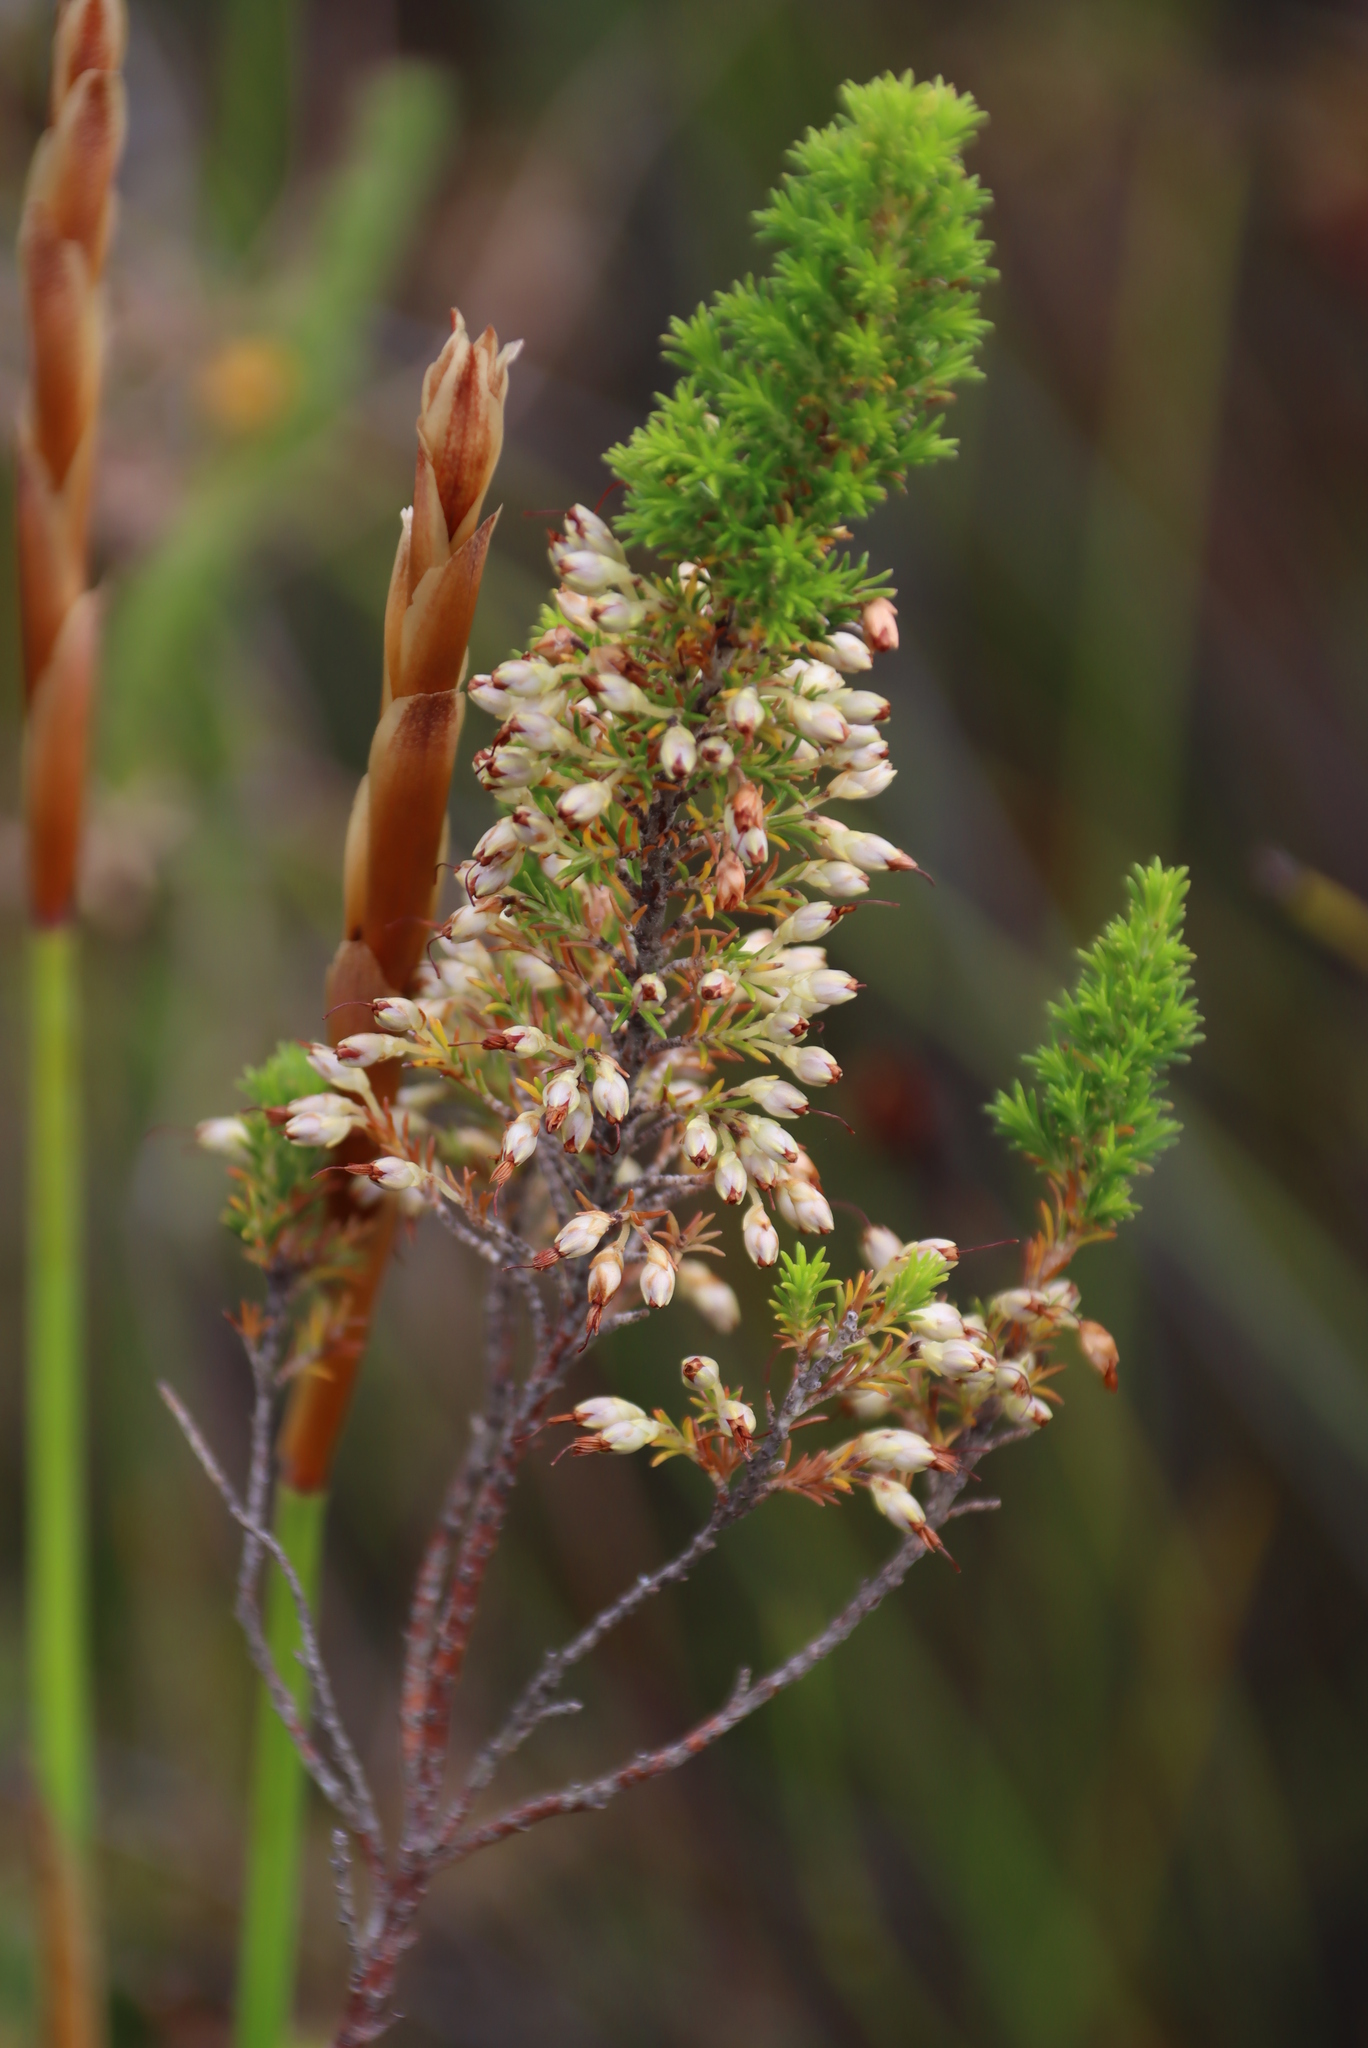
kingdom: Plantae
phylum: Tracheophyta
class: Magnoliopsida
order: Ericales
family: Ericaceae
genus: Erica
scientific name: Erica penicilliformis
